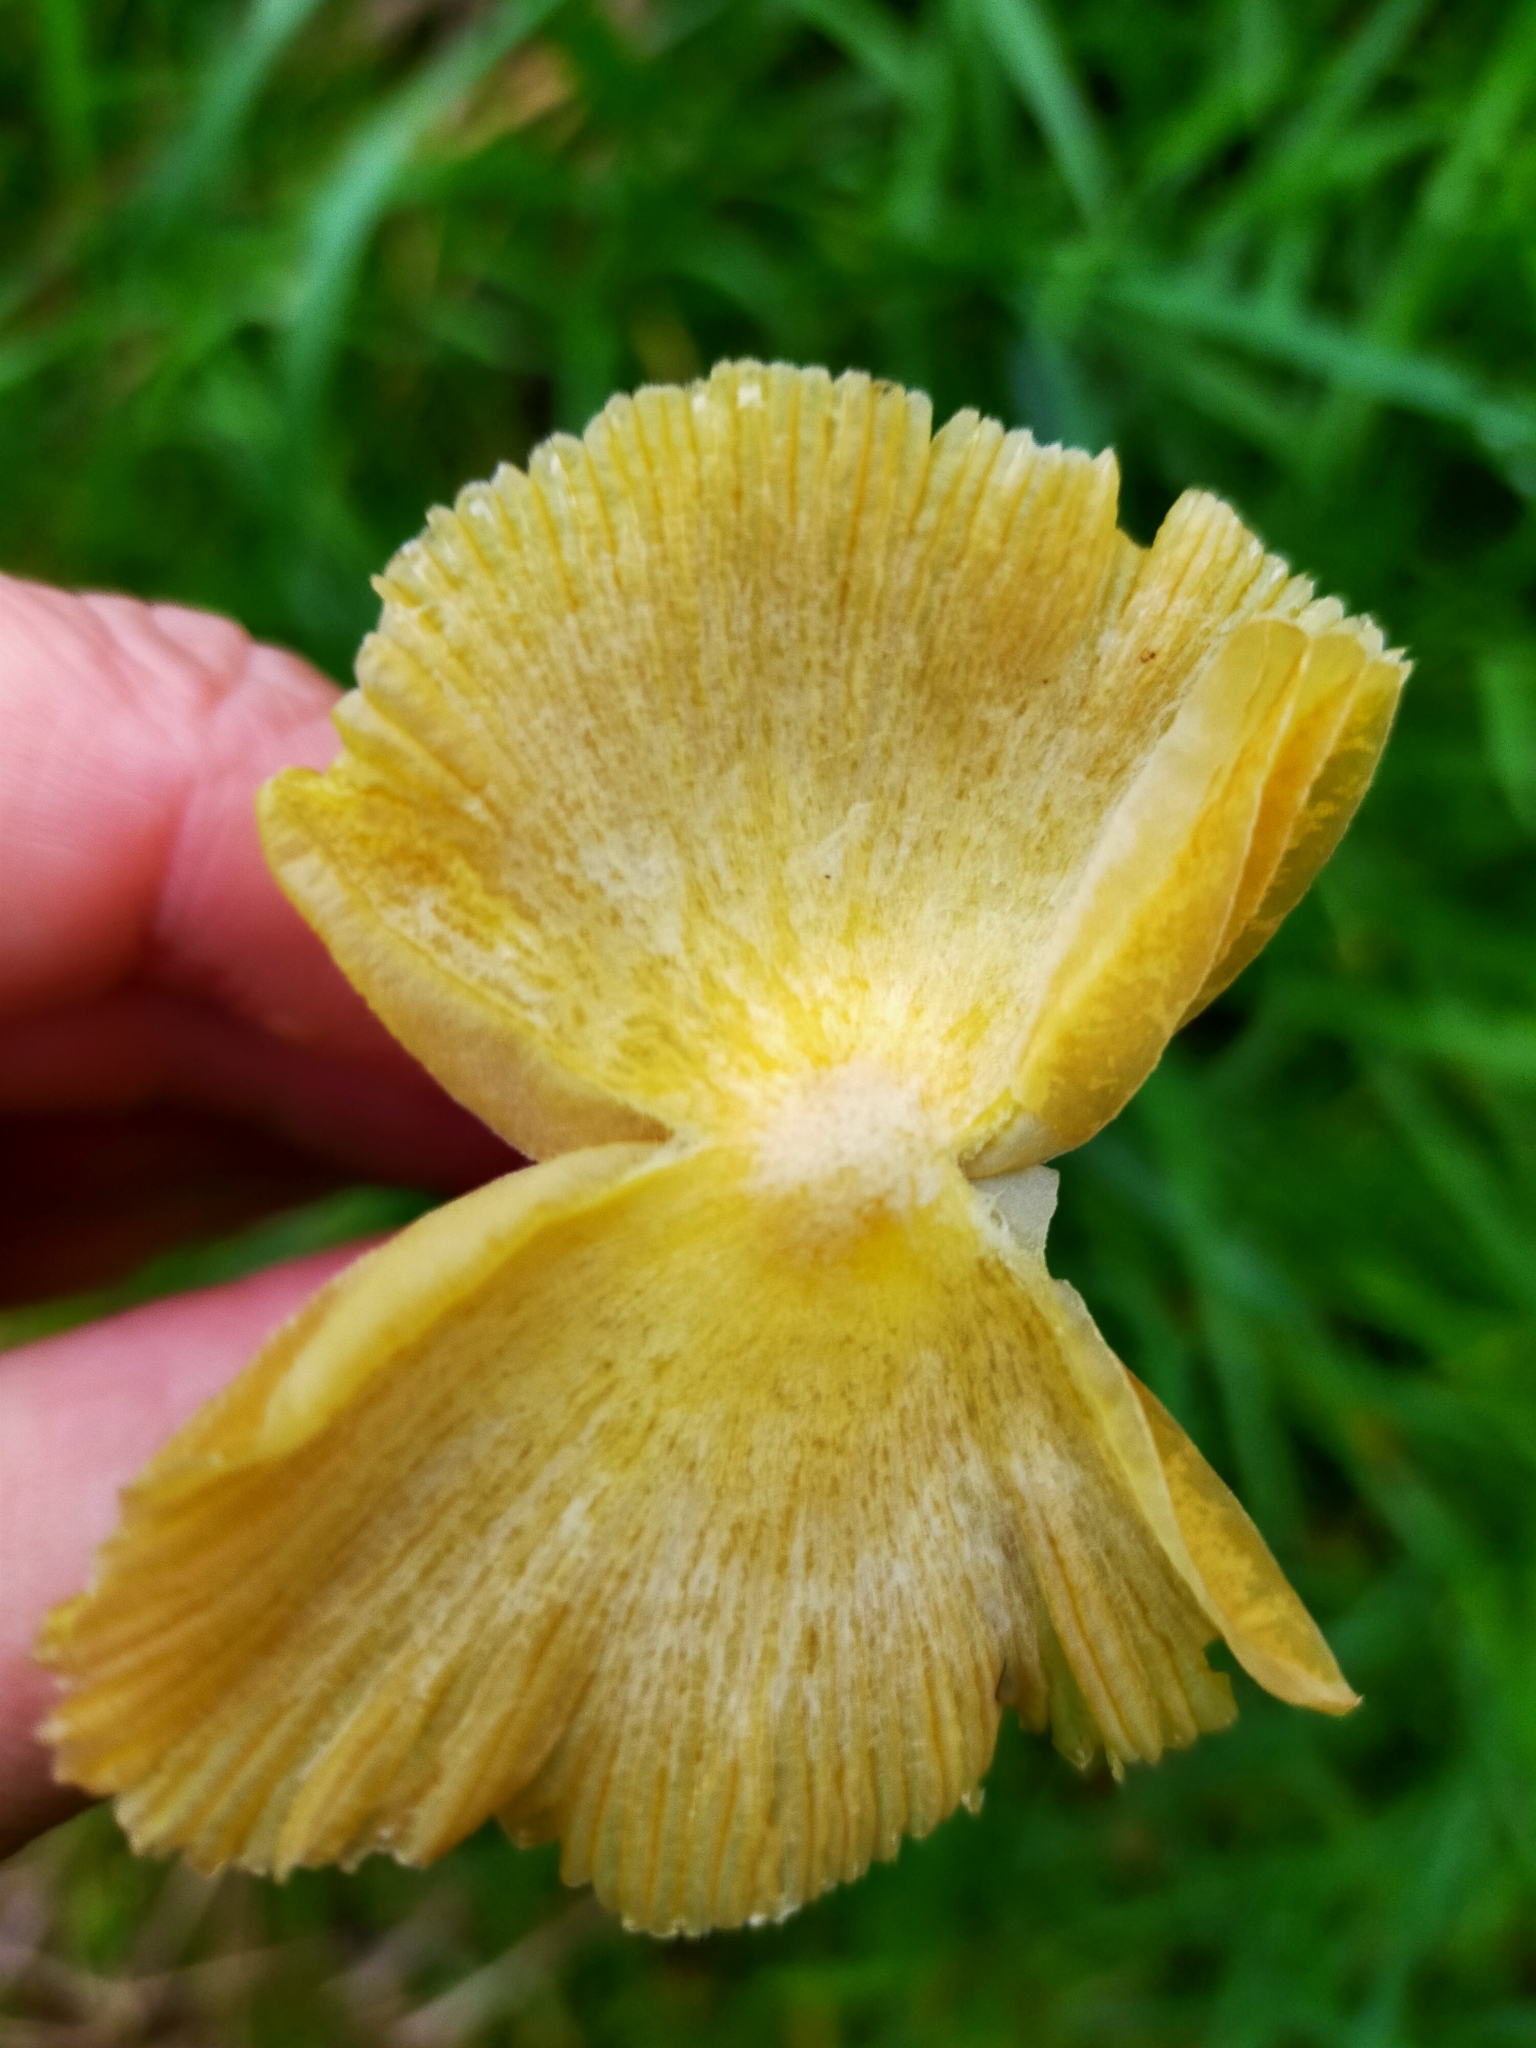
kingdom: Fungi
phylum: Basidiomycota
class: Agaricomycetes
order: Agaricales
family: Bolbitiaceae
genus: Bolbitius
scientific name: Bolbitius titubans
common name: Yellow fieldcap
